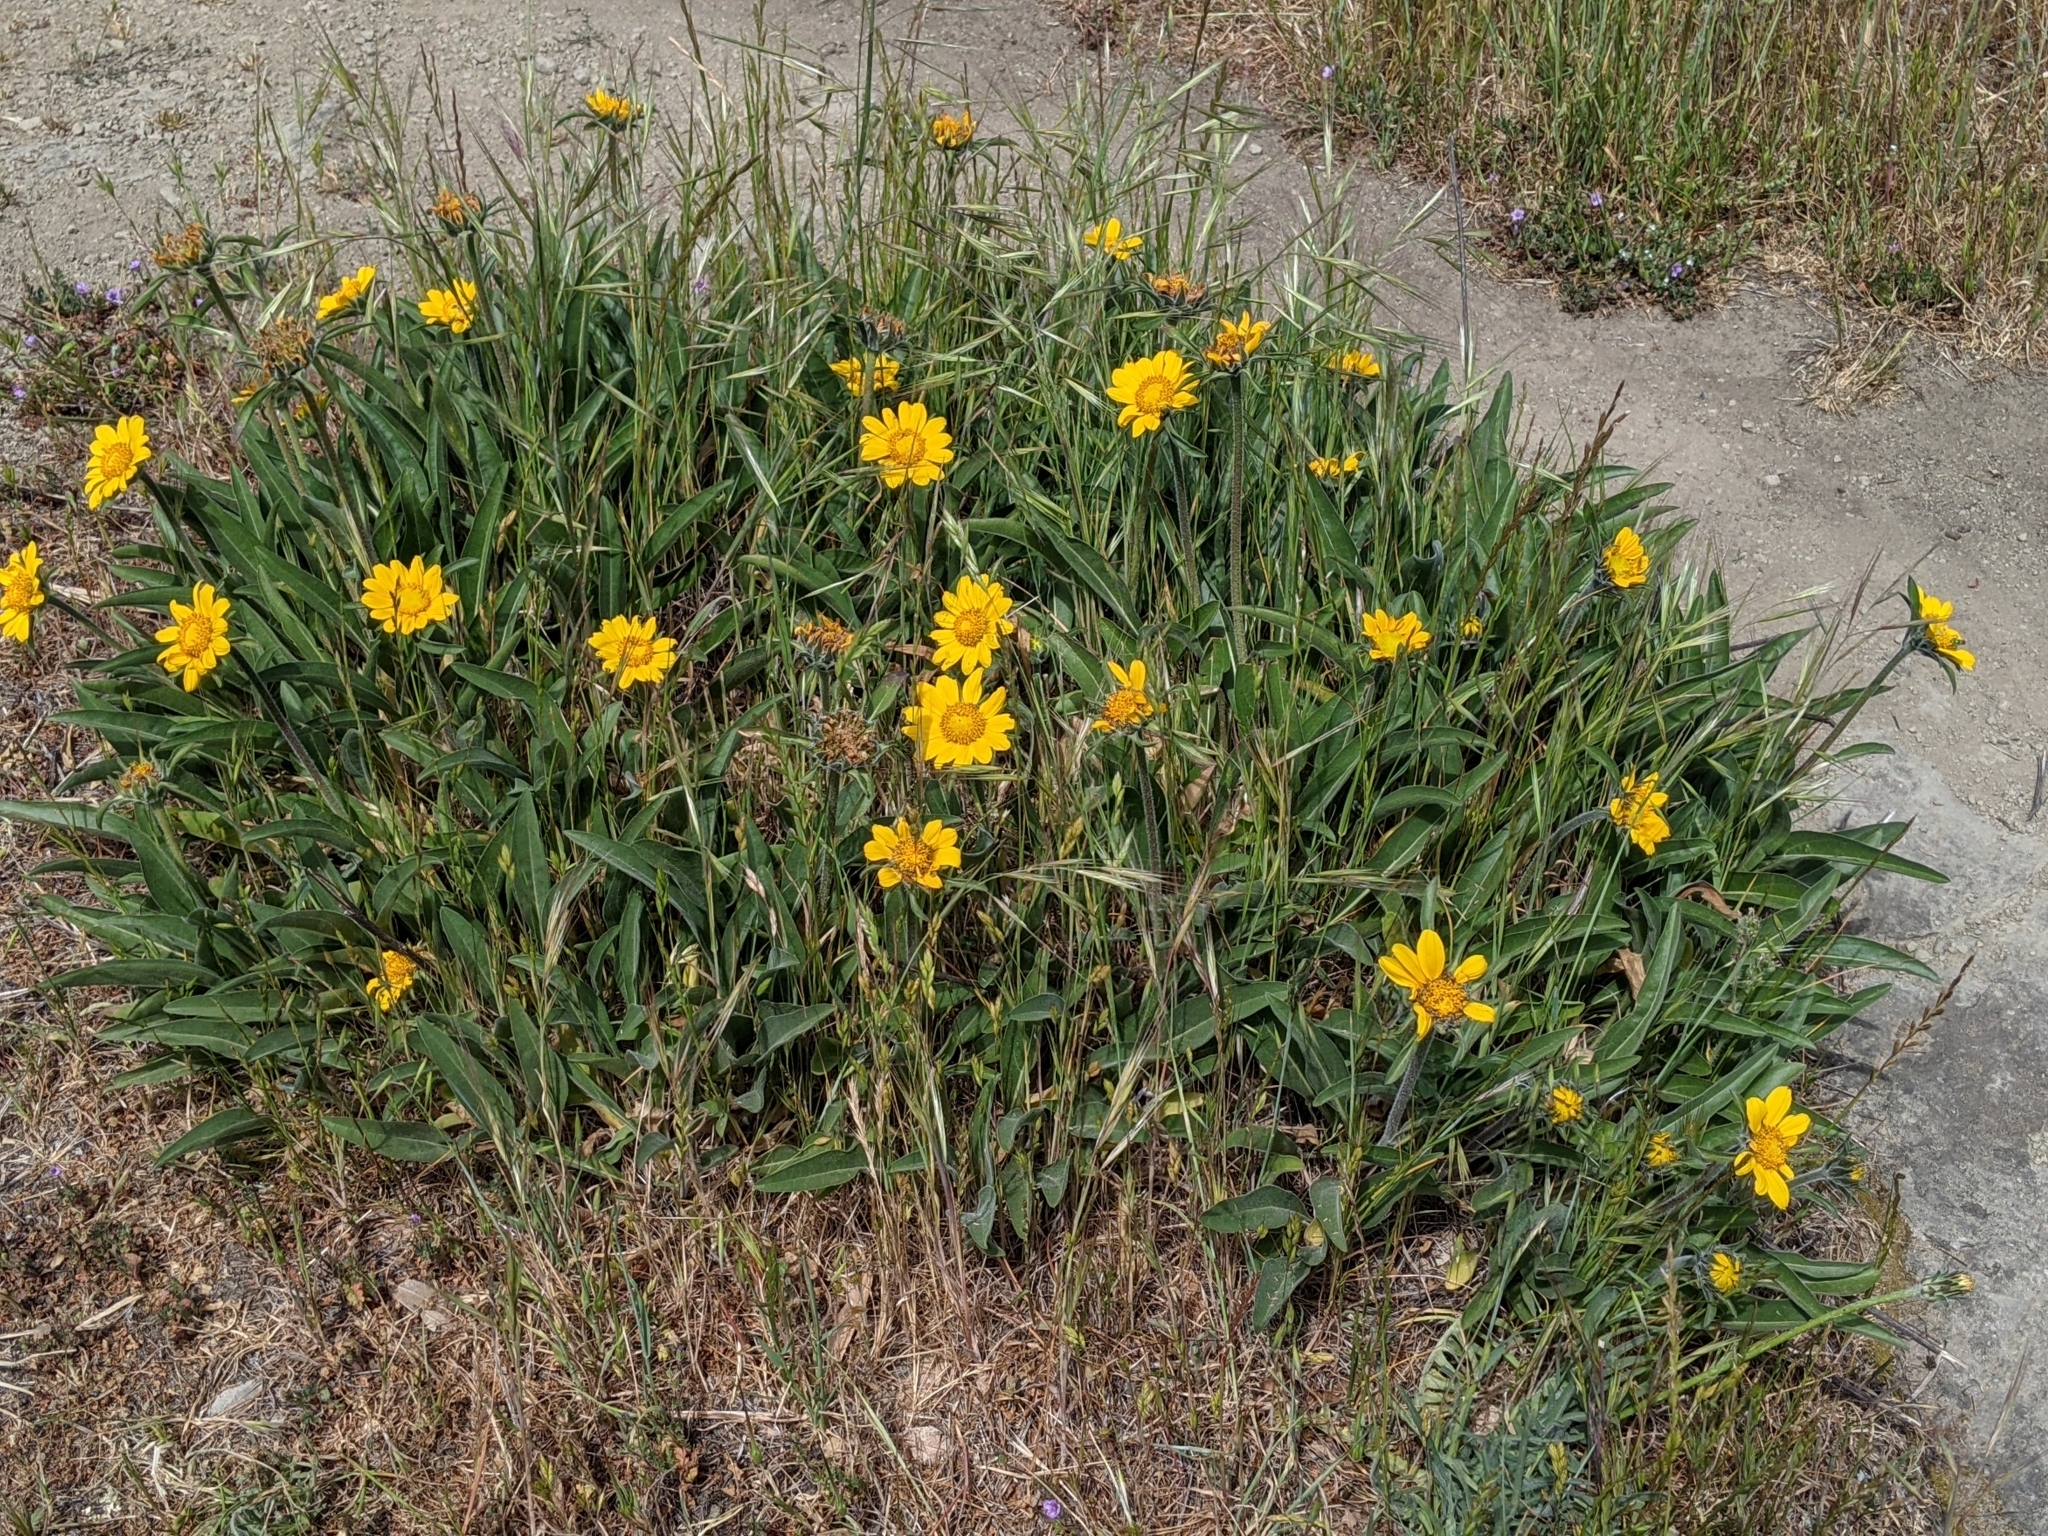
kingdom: Plantae
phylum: Tracheophyta
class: Magnoliopsida
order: Asterales
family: Asteraceae
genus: Helianthella
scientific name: Helianthella castanea
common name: Diablo helianthella
